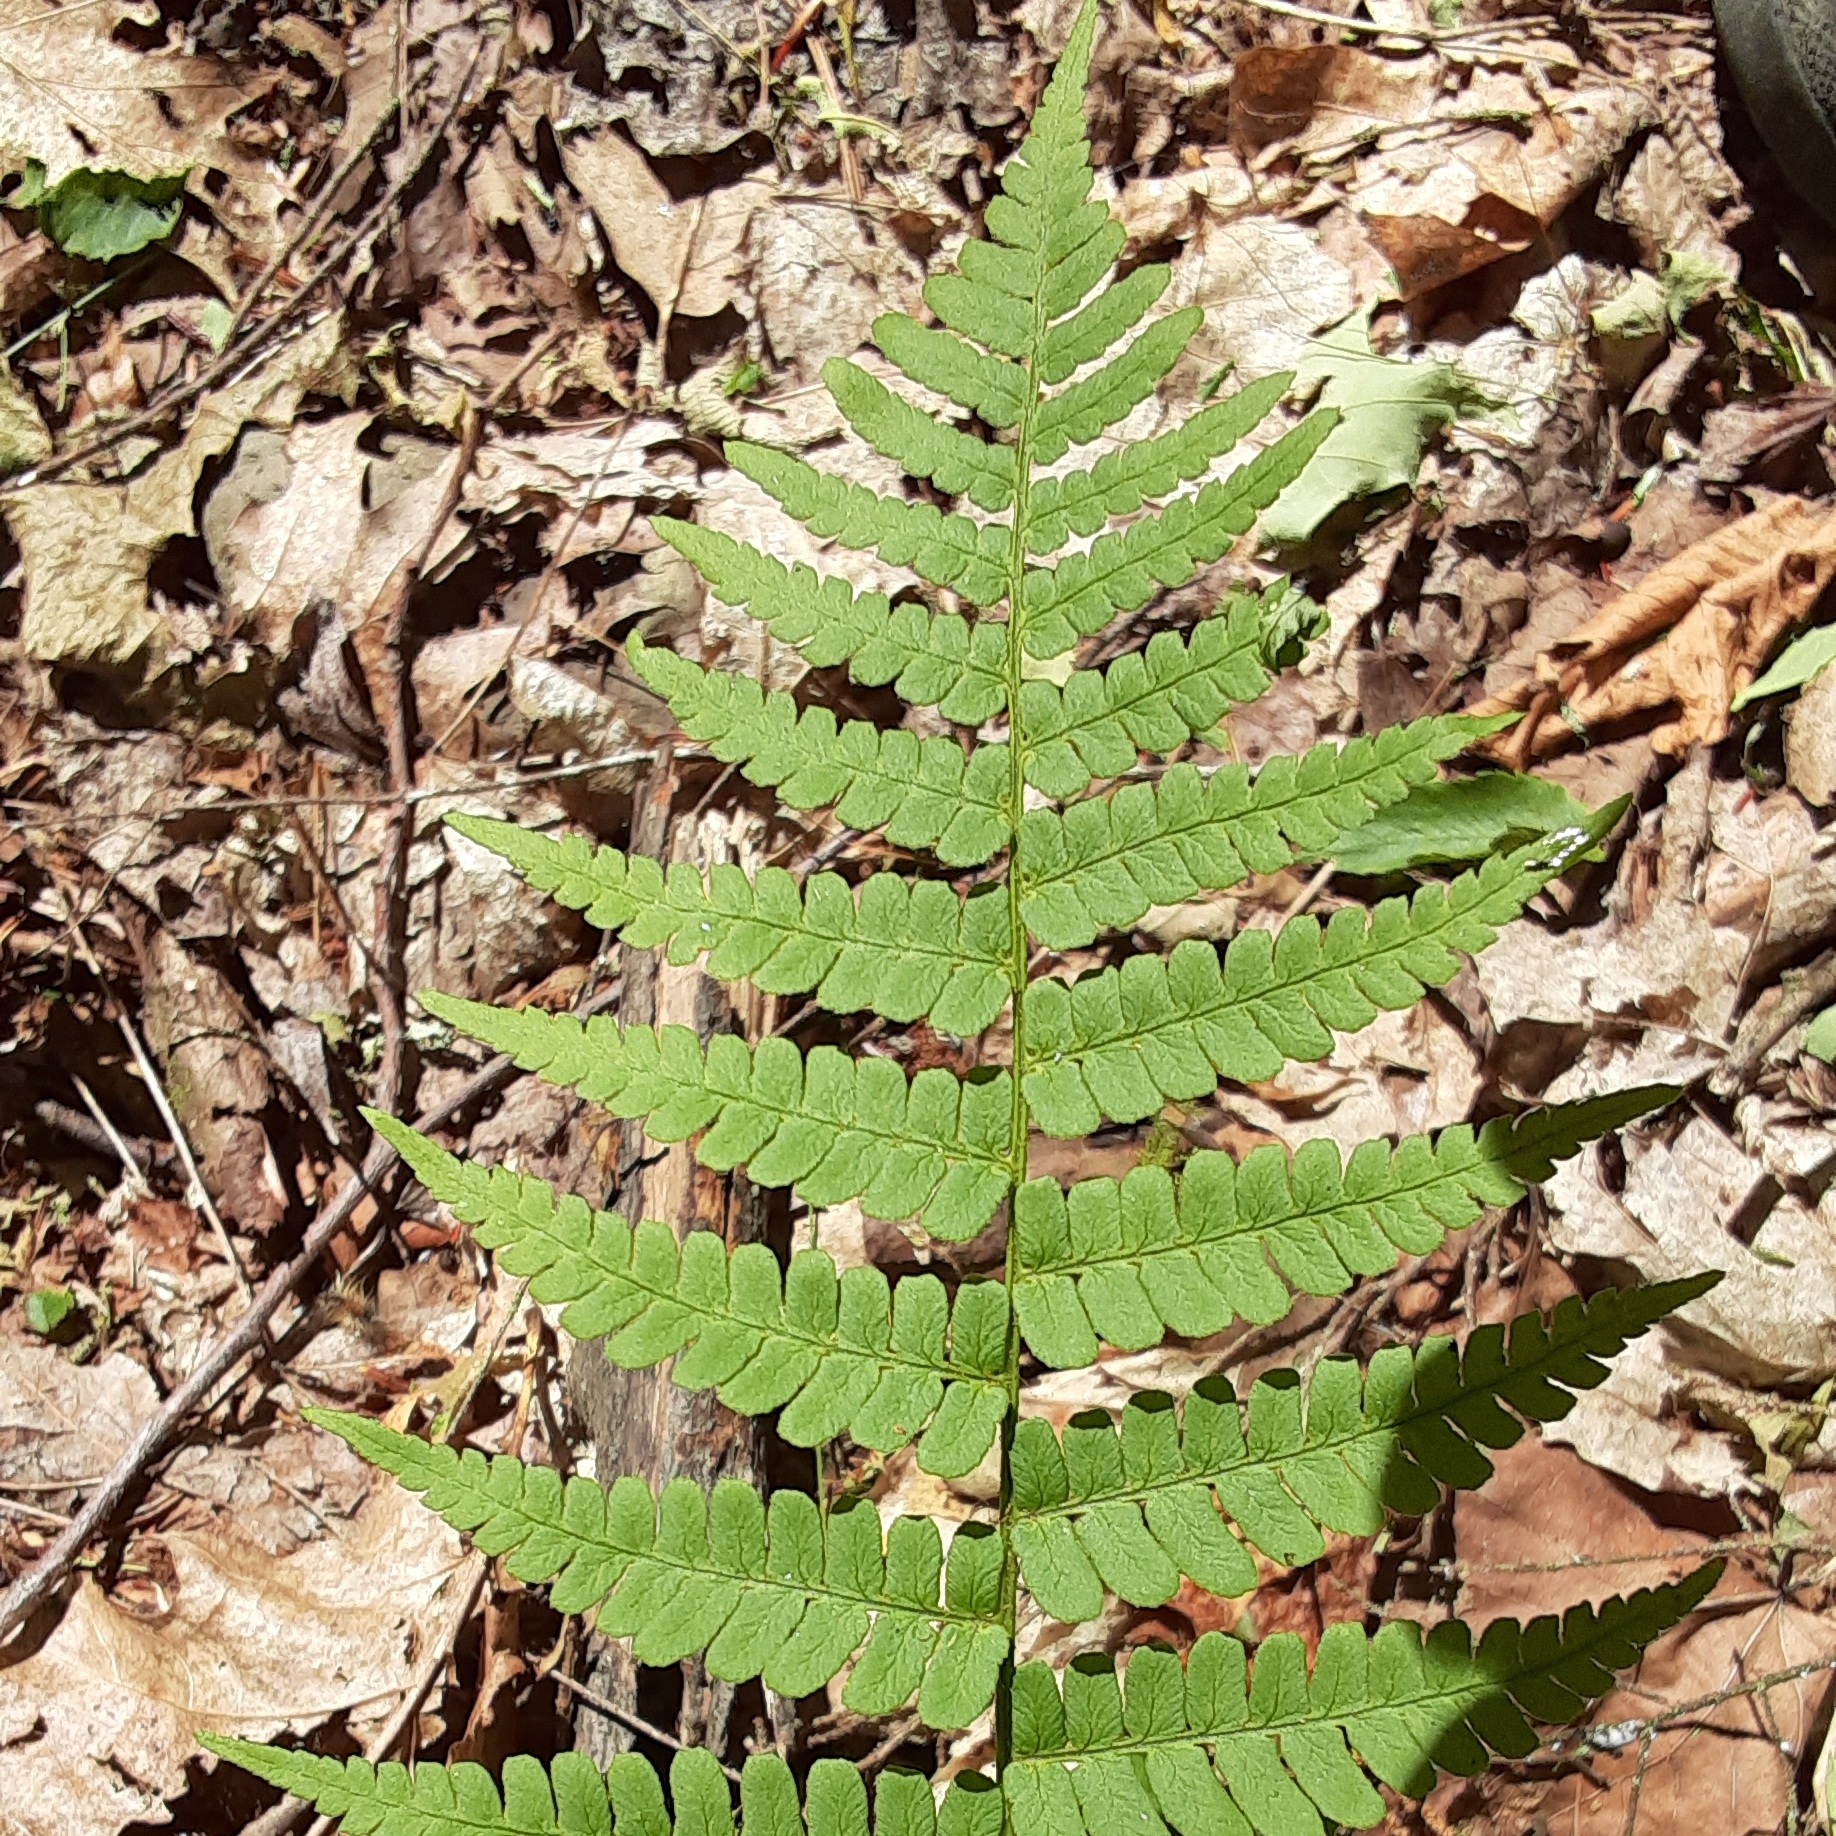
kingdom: Plantae
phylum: Tracheophyta
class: Polypodiopsida
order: Polypodiales
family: Dryopteridaceae
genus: Dryopteris
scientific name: Dryopteris marginalis
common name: Marginal wood fern
